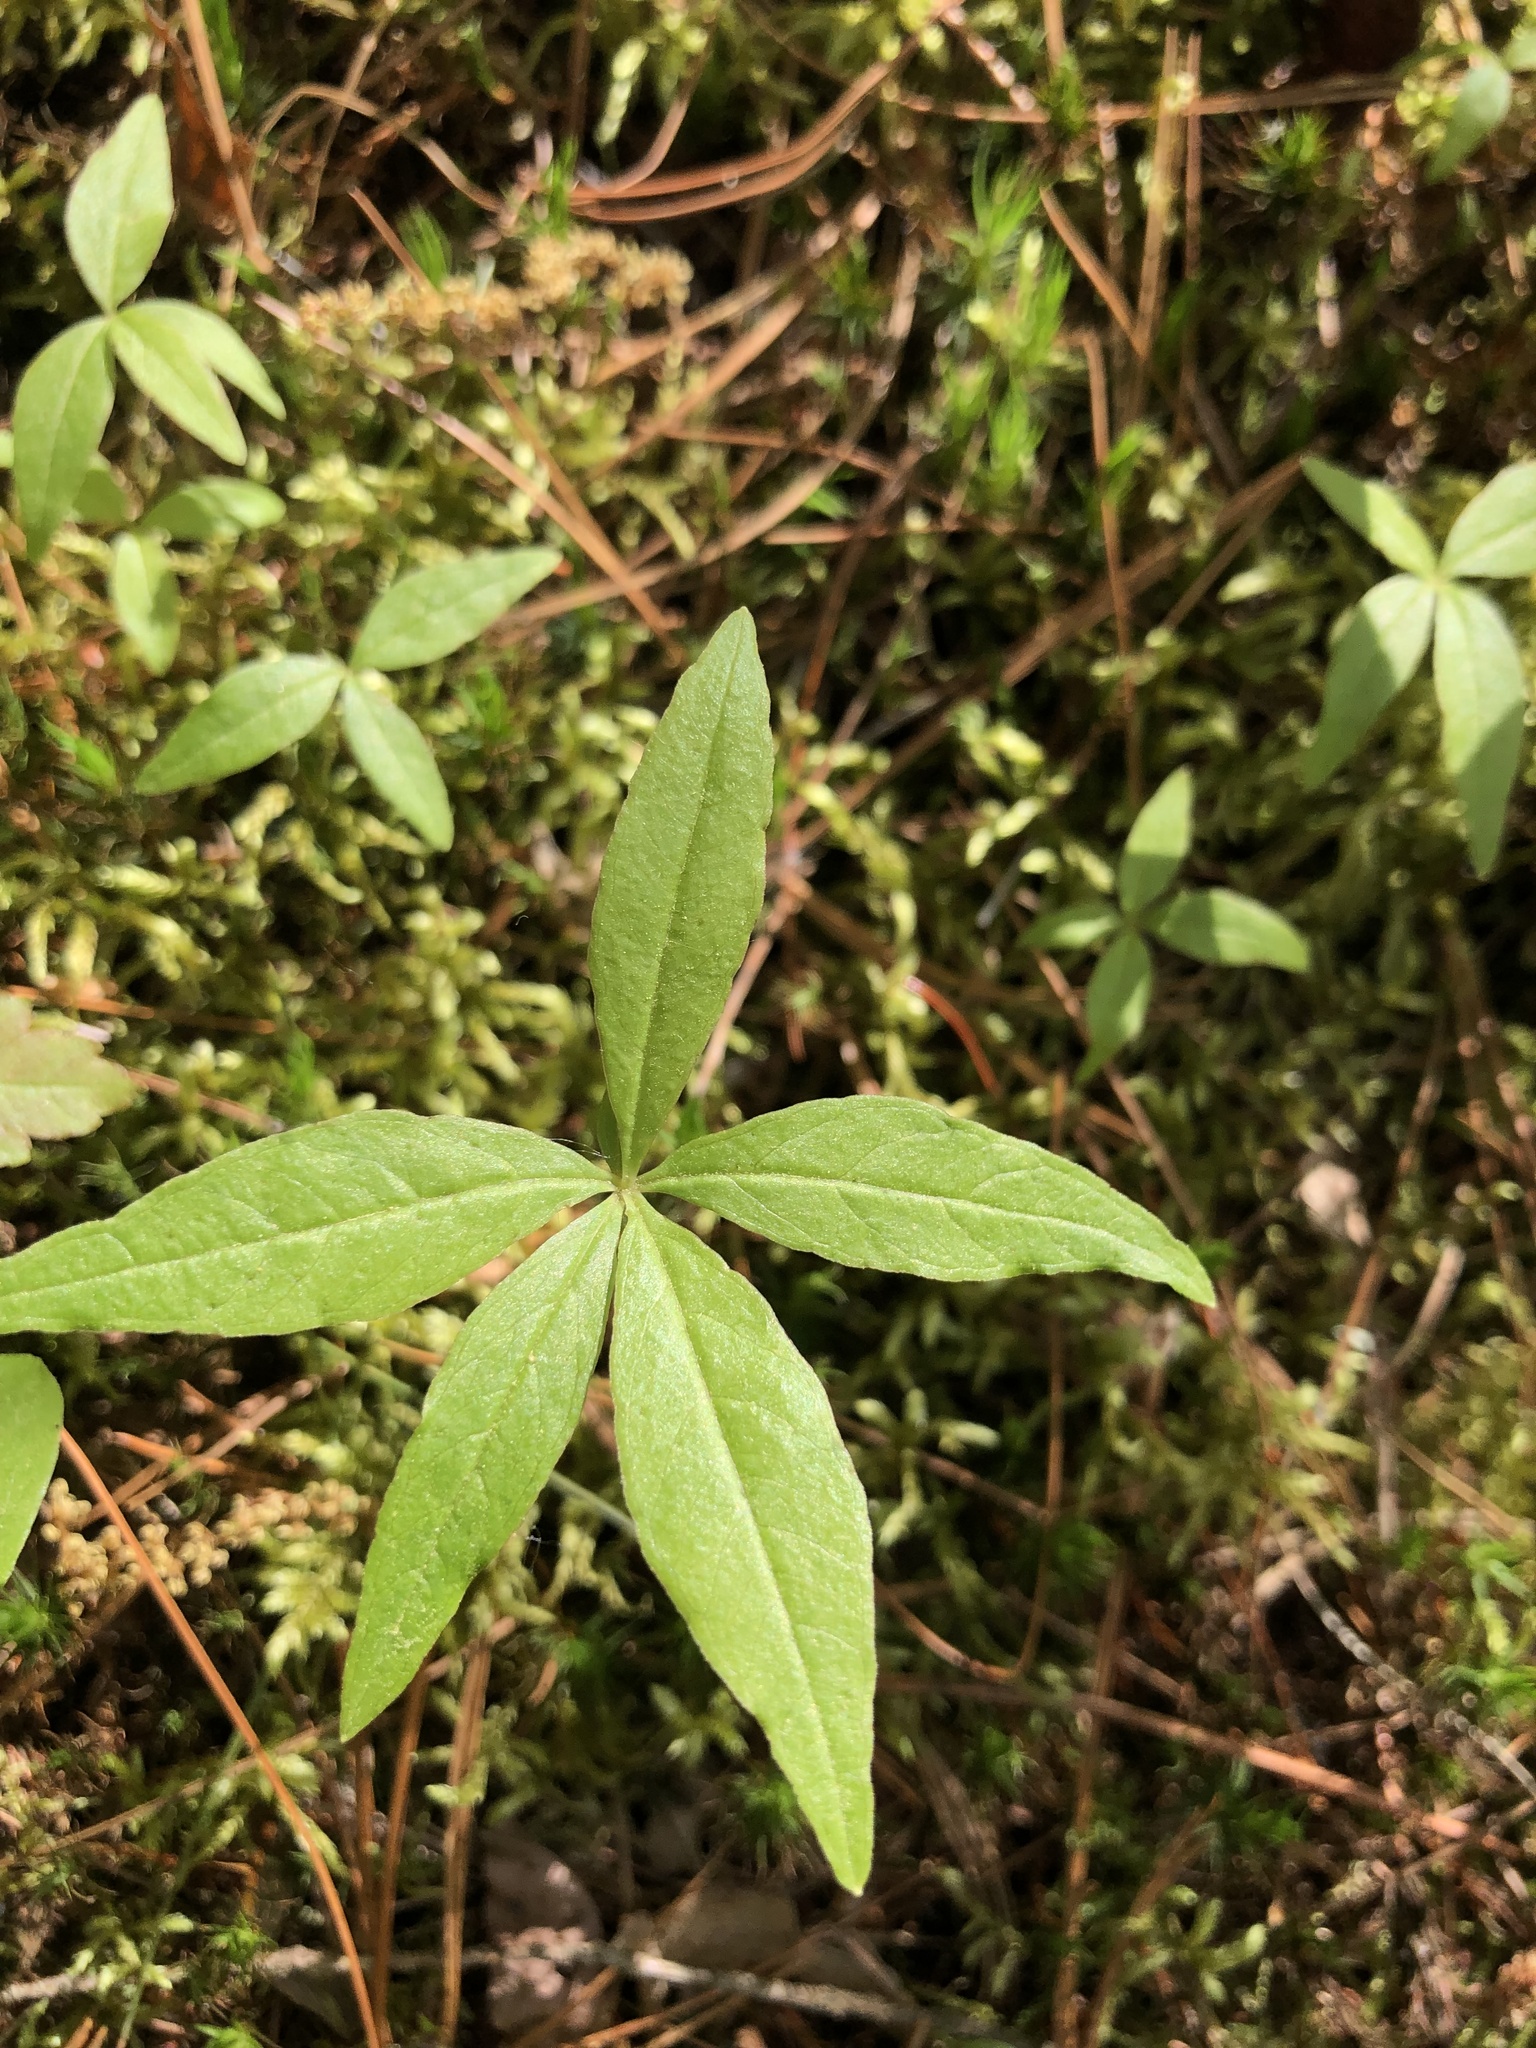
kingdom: Plantae
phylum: Tracheophyta
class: Magnoliopsida
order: Ericales
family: Primulaceae
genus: Lysimachia
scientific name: Lysimachia borealis
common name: American starflower
